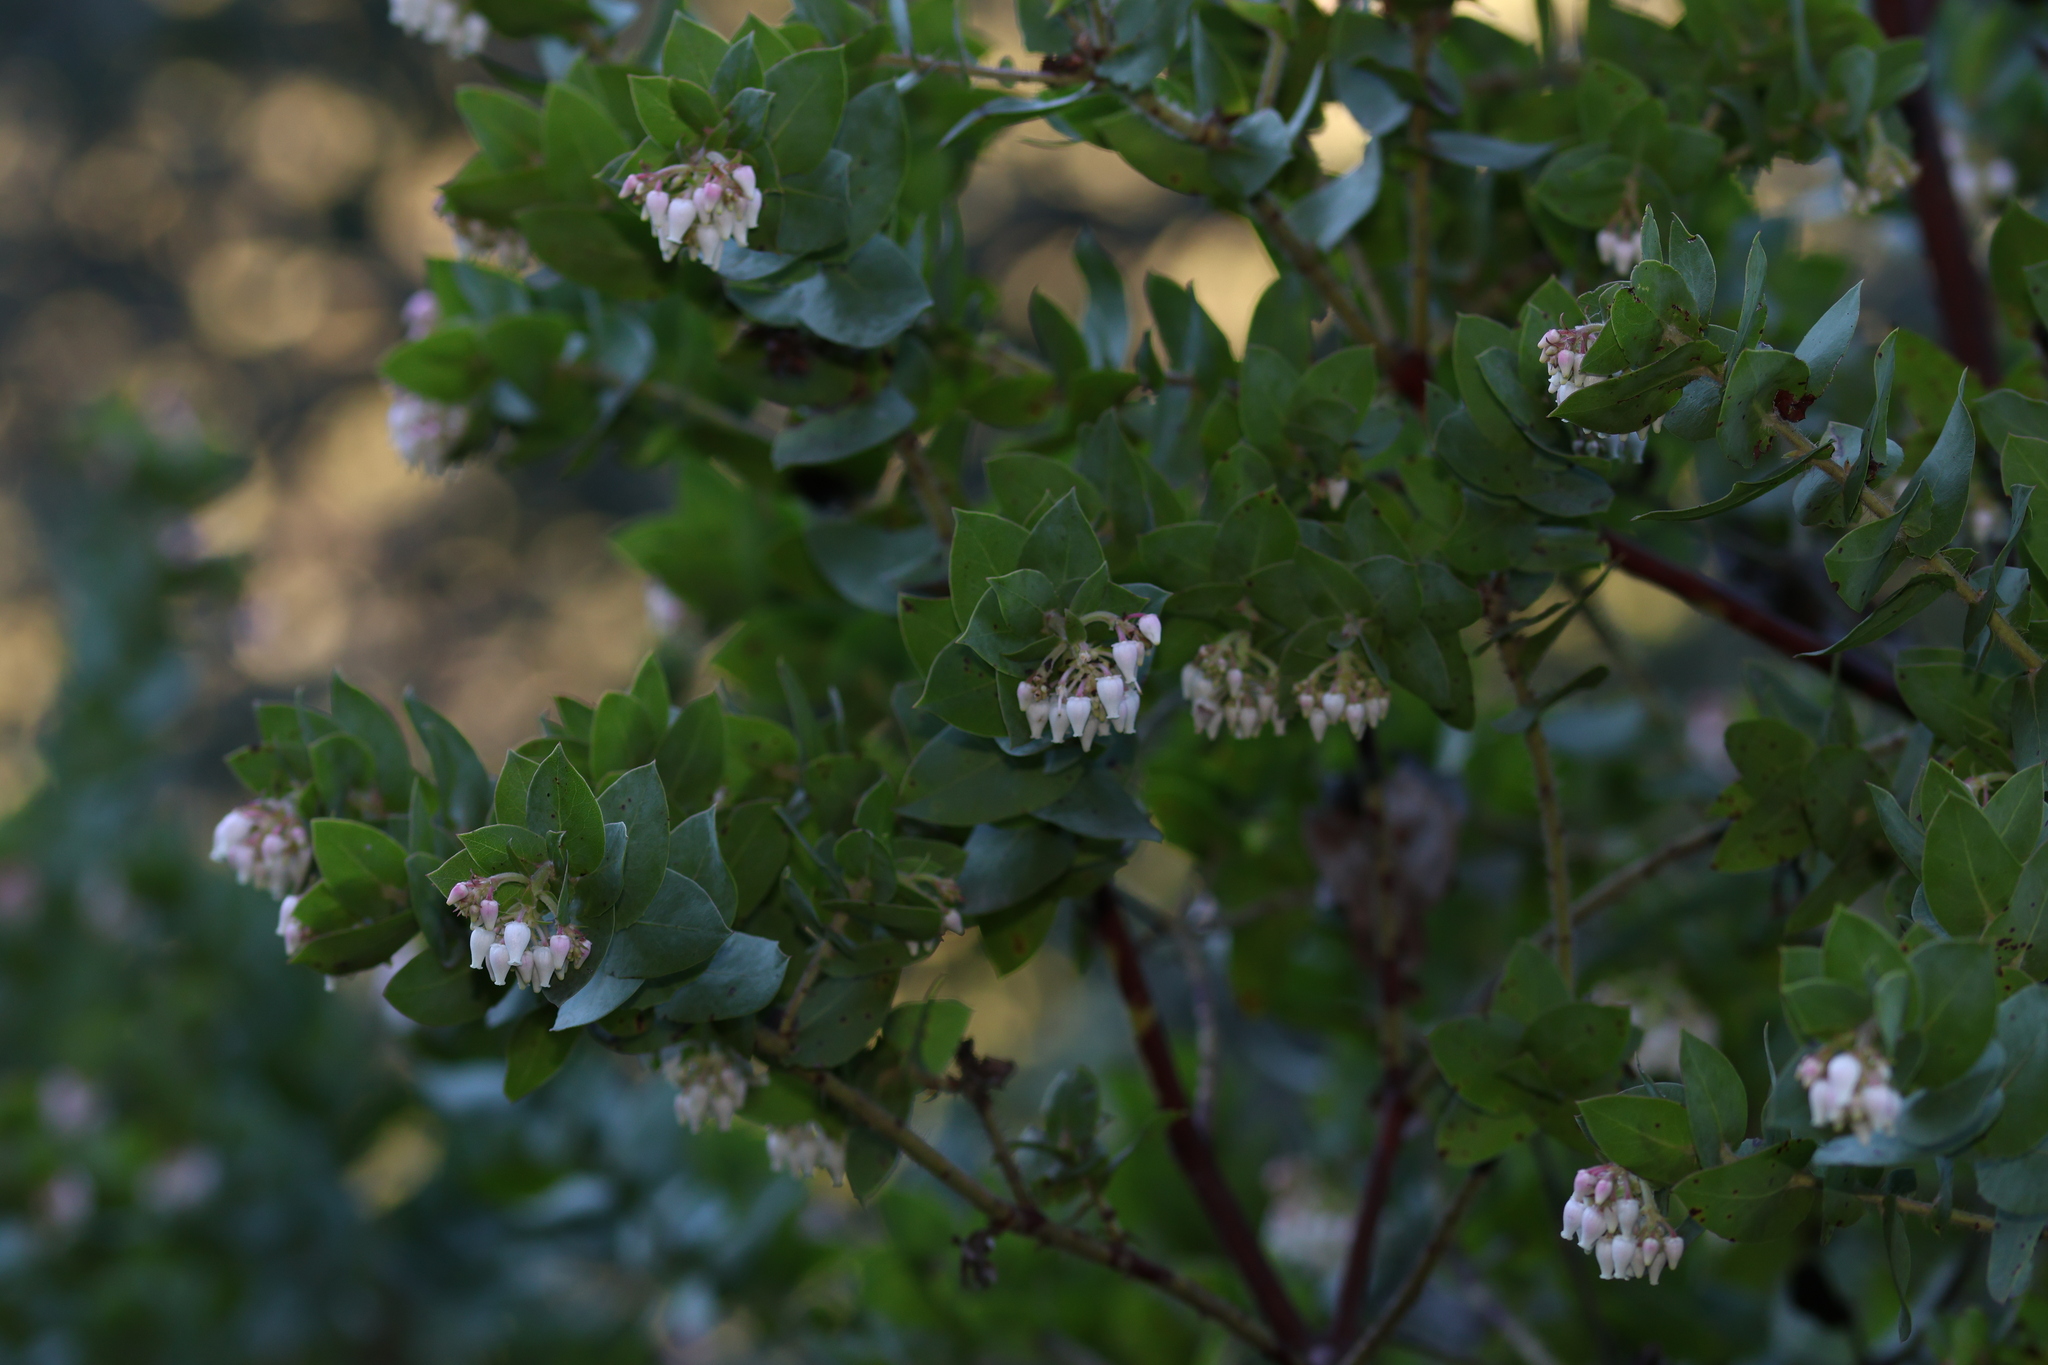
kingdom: Plantae
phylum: Tracheophyta
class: Magnoliopsida
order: Ericales
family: Ericaceae
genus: Arctostaphylos
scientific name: Arctostaphylos pallida
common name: Pallid manzanita
